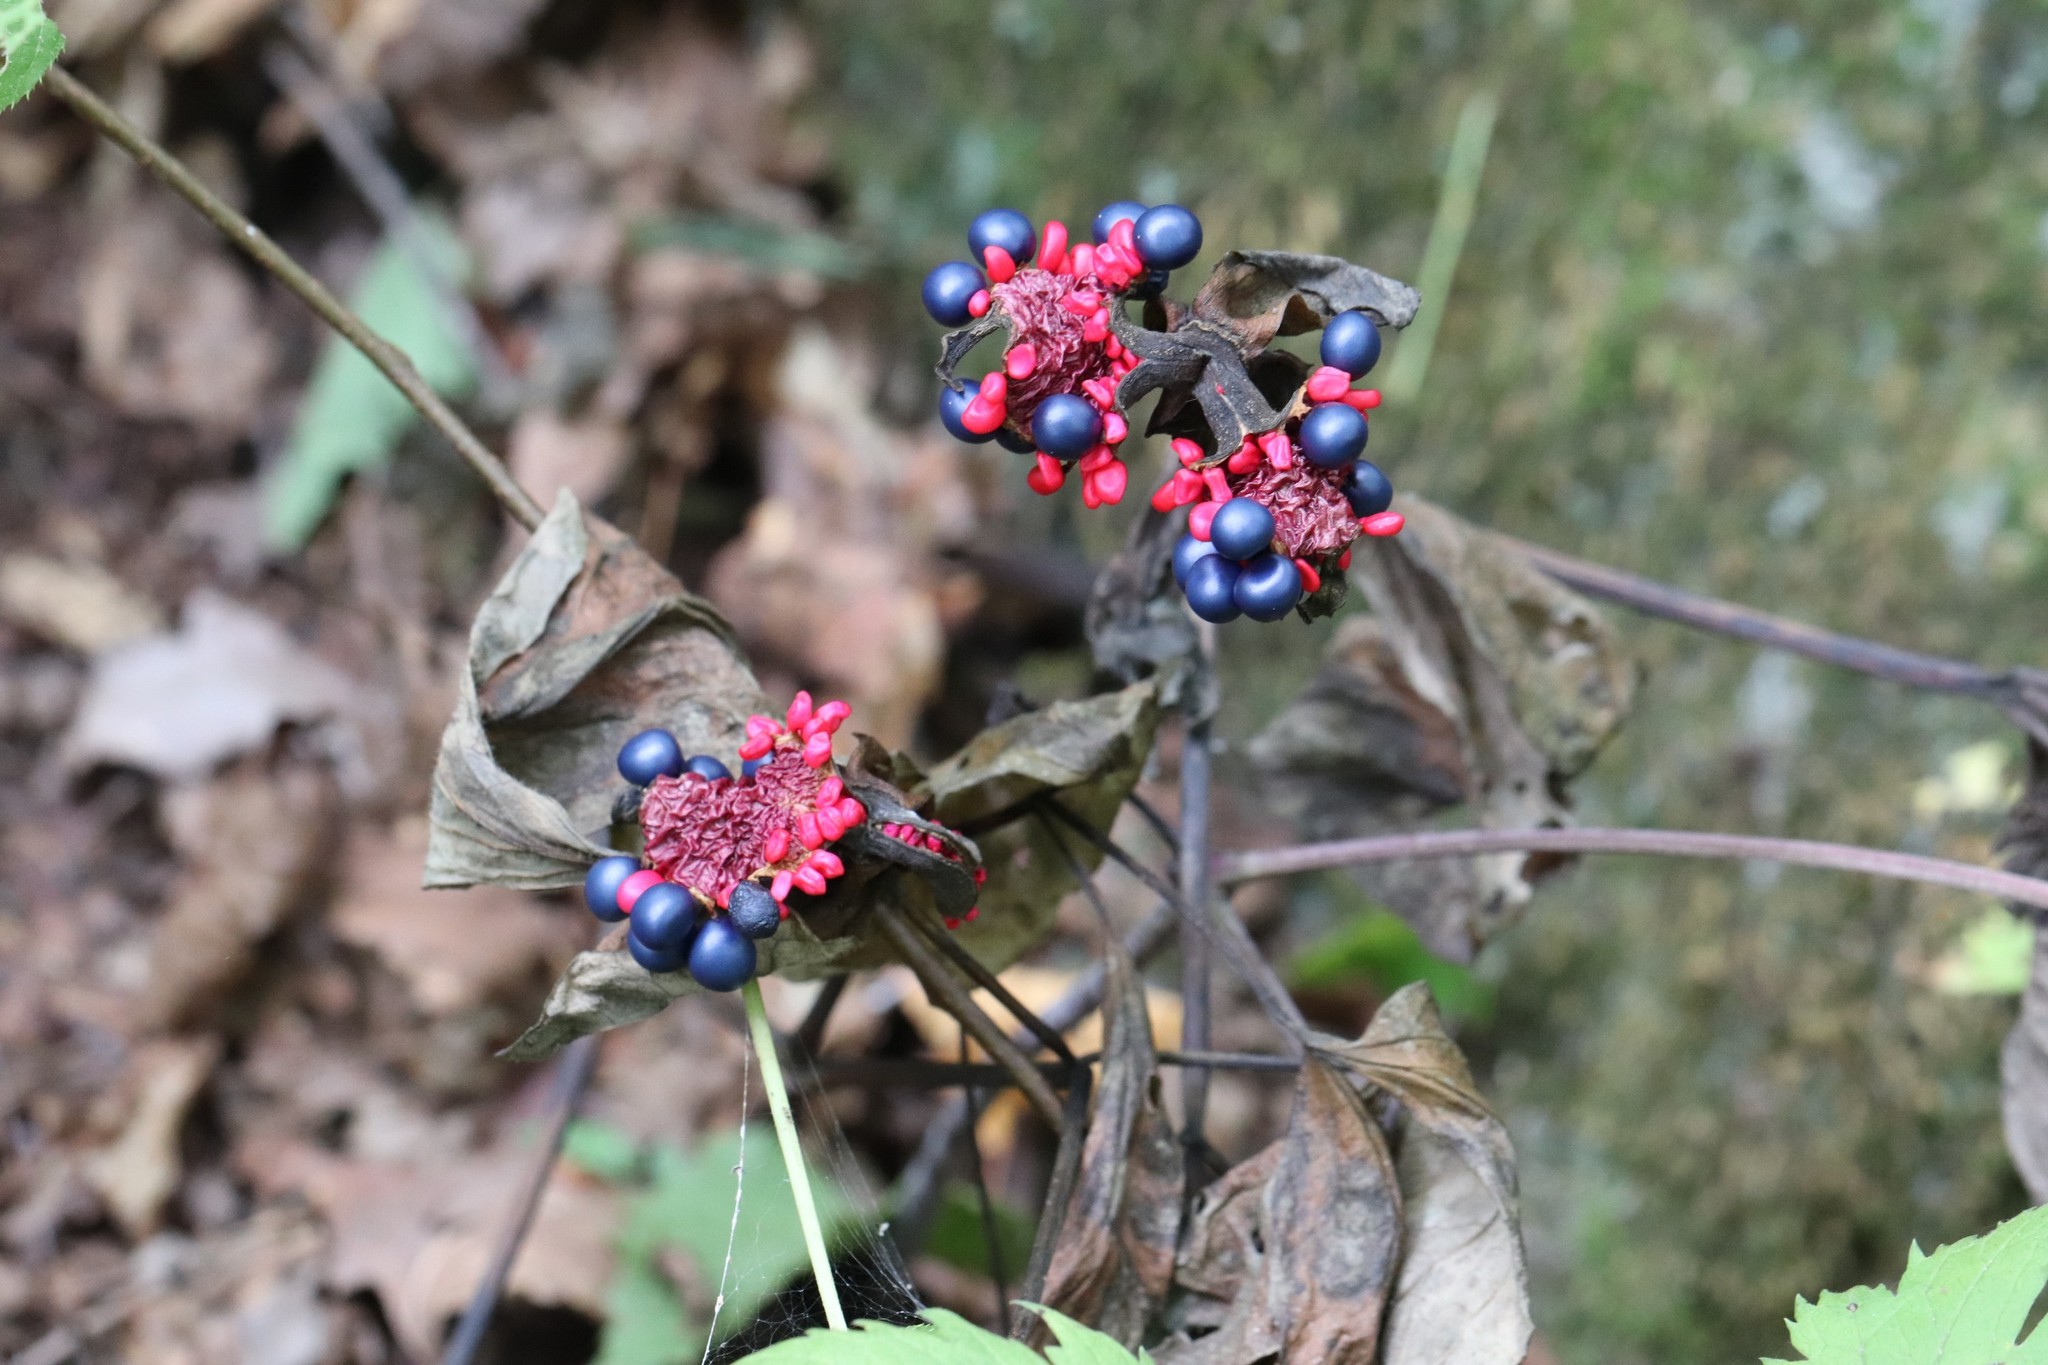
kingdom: Plantae
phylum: Tracheophyta
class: Magnoliopsida
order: Saxifragales
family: Paeoniaceae
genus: Paeonia
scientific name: Paeonia obovata
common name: Chinese peony
